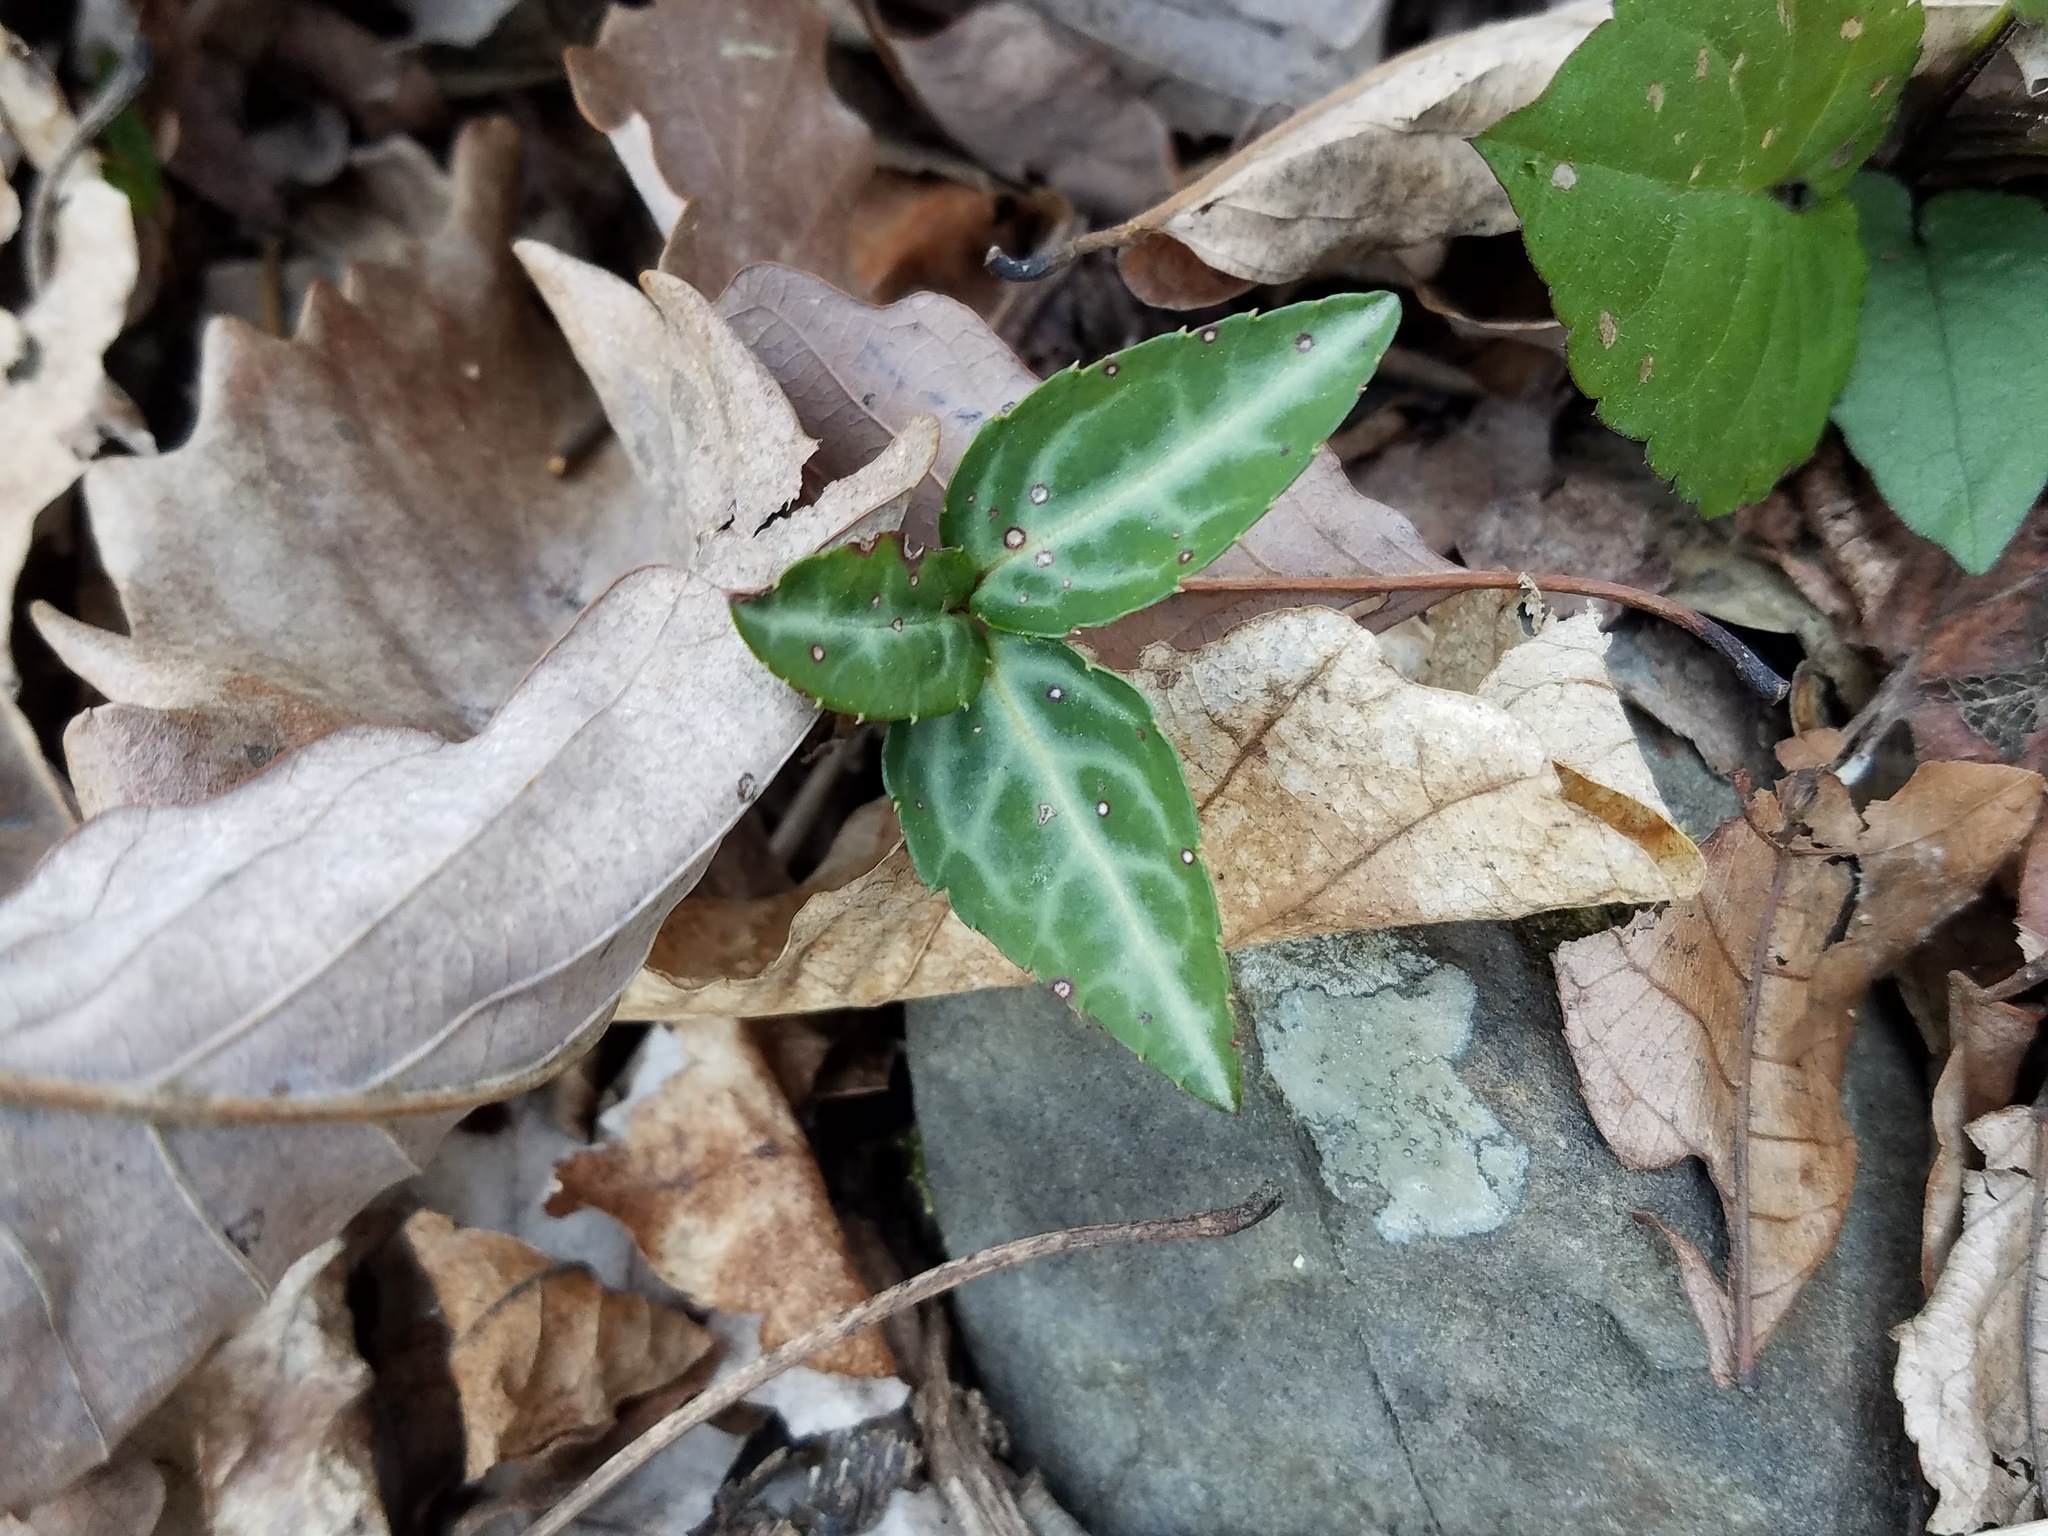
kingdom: Plantae
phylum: Tracheophyta
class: Magnoliopsida
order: Ericales
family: Ericaceae
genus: Chimaphila
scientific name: Chimaphila maculata
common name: Spotted pipsissewa
